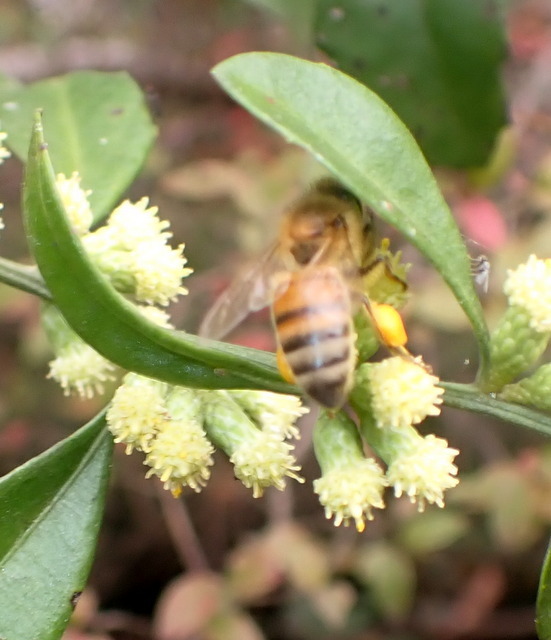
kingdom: Animalia
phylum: Arthropoda
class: Insecta
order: Hymenoptera
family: Apidae
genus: Apis
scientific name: Apis mellifera
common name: Honey bee
